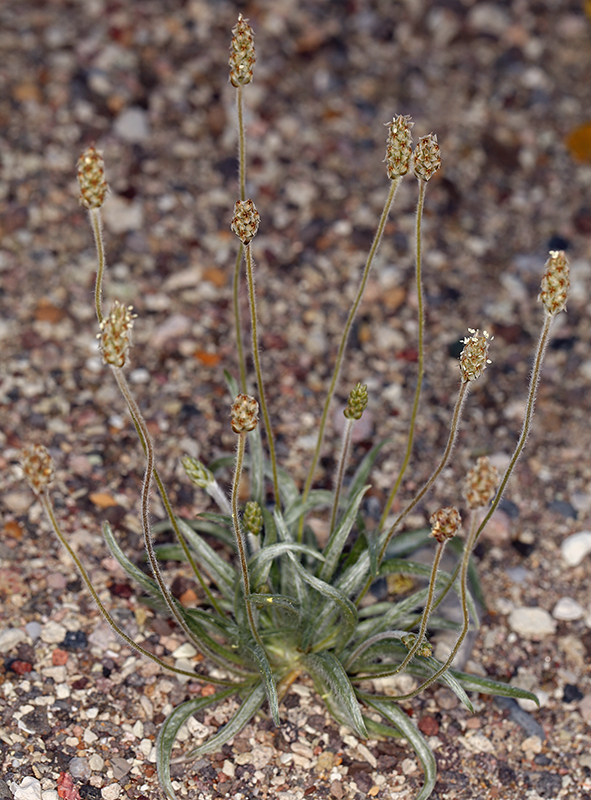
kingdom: Plantae
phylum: Tracheophyta
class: Magnoliopsida
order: Lamiales
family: Plantaginaceae
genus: Plantago
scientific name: Plantago ovata
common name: Blond plantain
